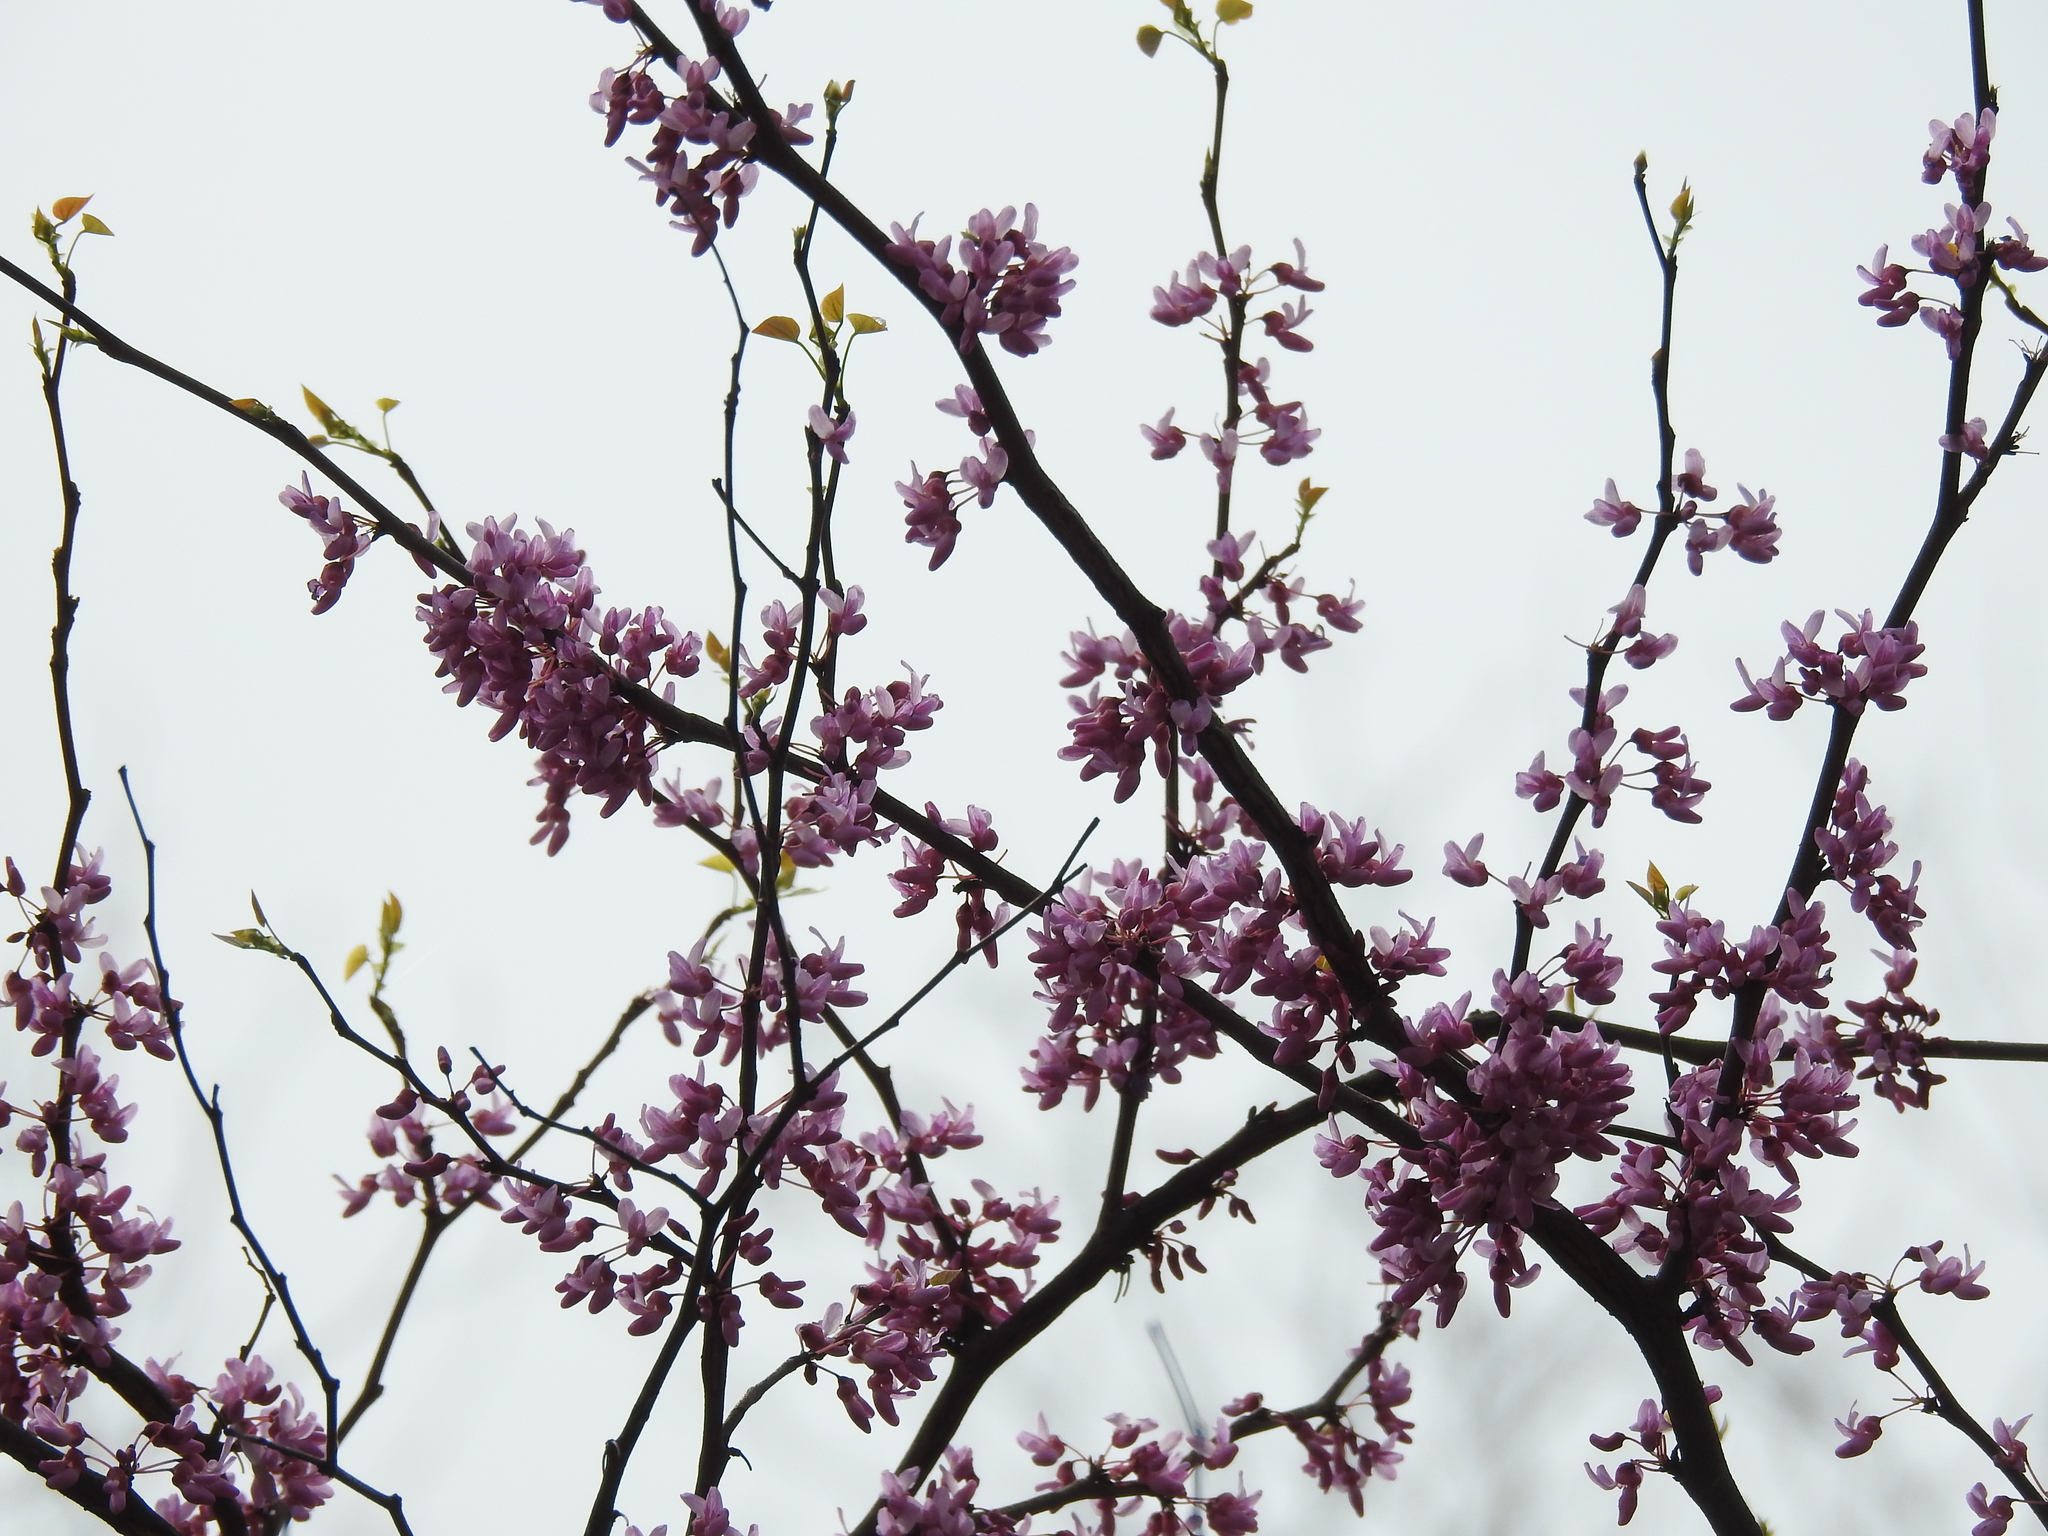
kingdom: Plantae
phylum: Tracheophyta
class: Magnoliopsida
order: Fabales
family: Fabaceae
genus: Cercis
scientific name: Cercis canadensis
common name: Eastern redbud
